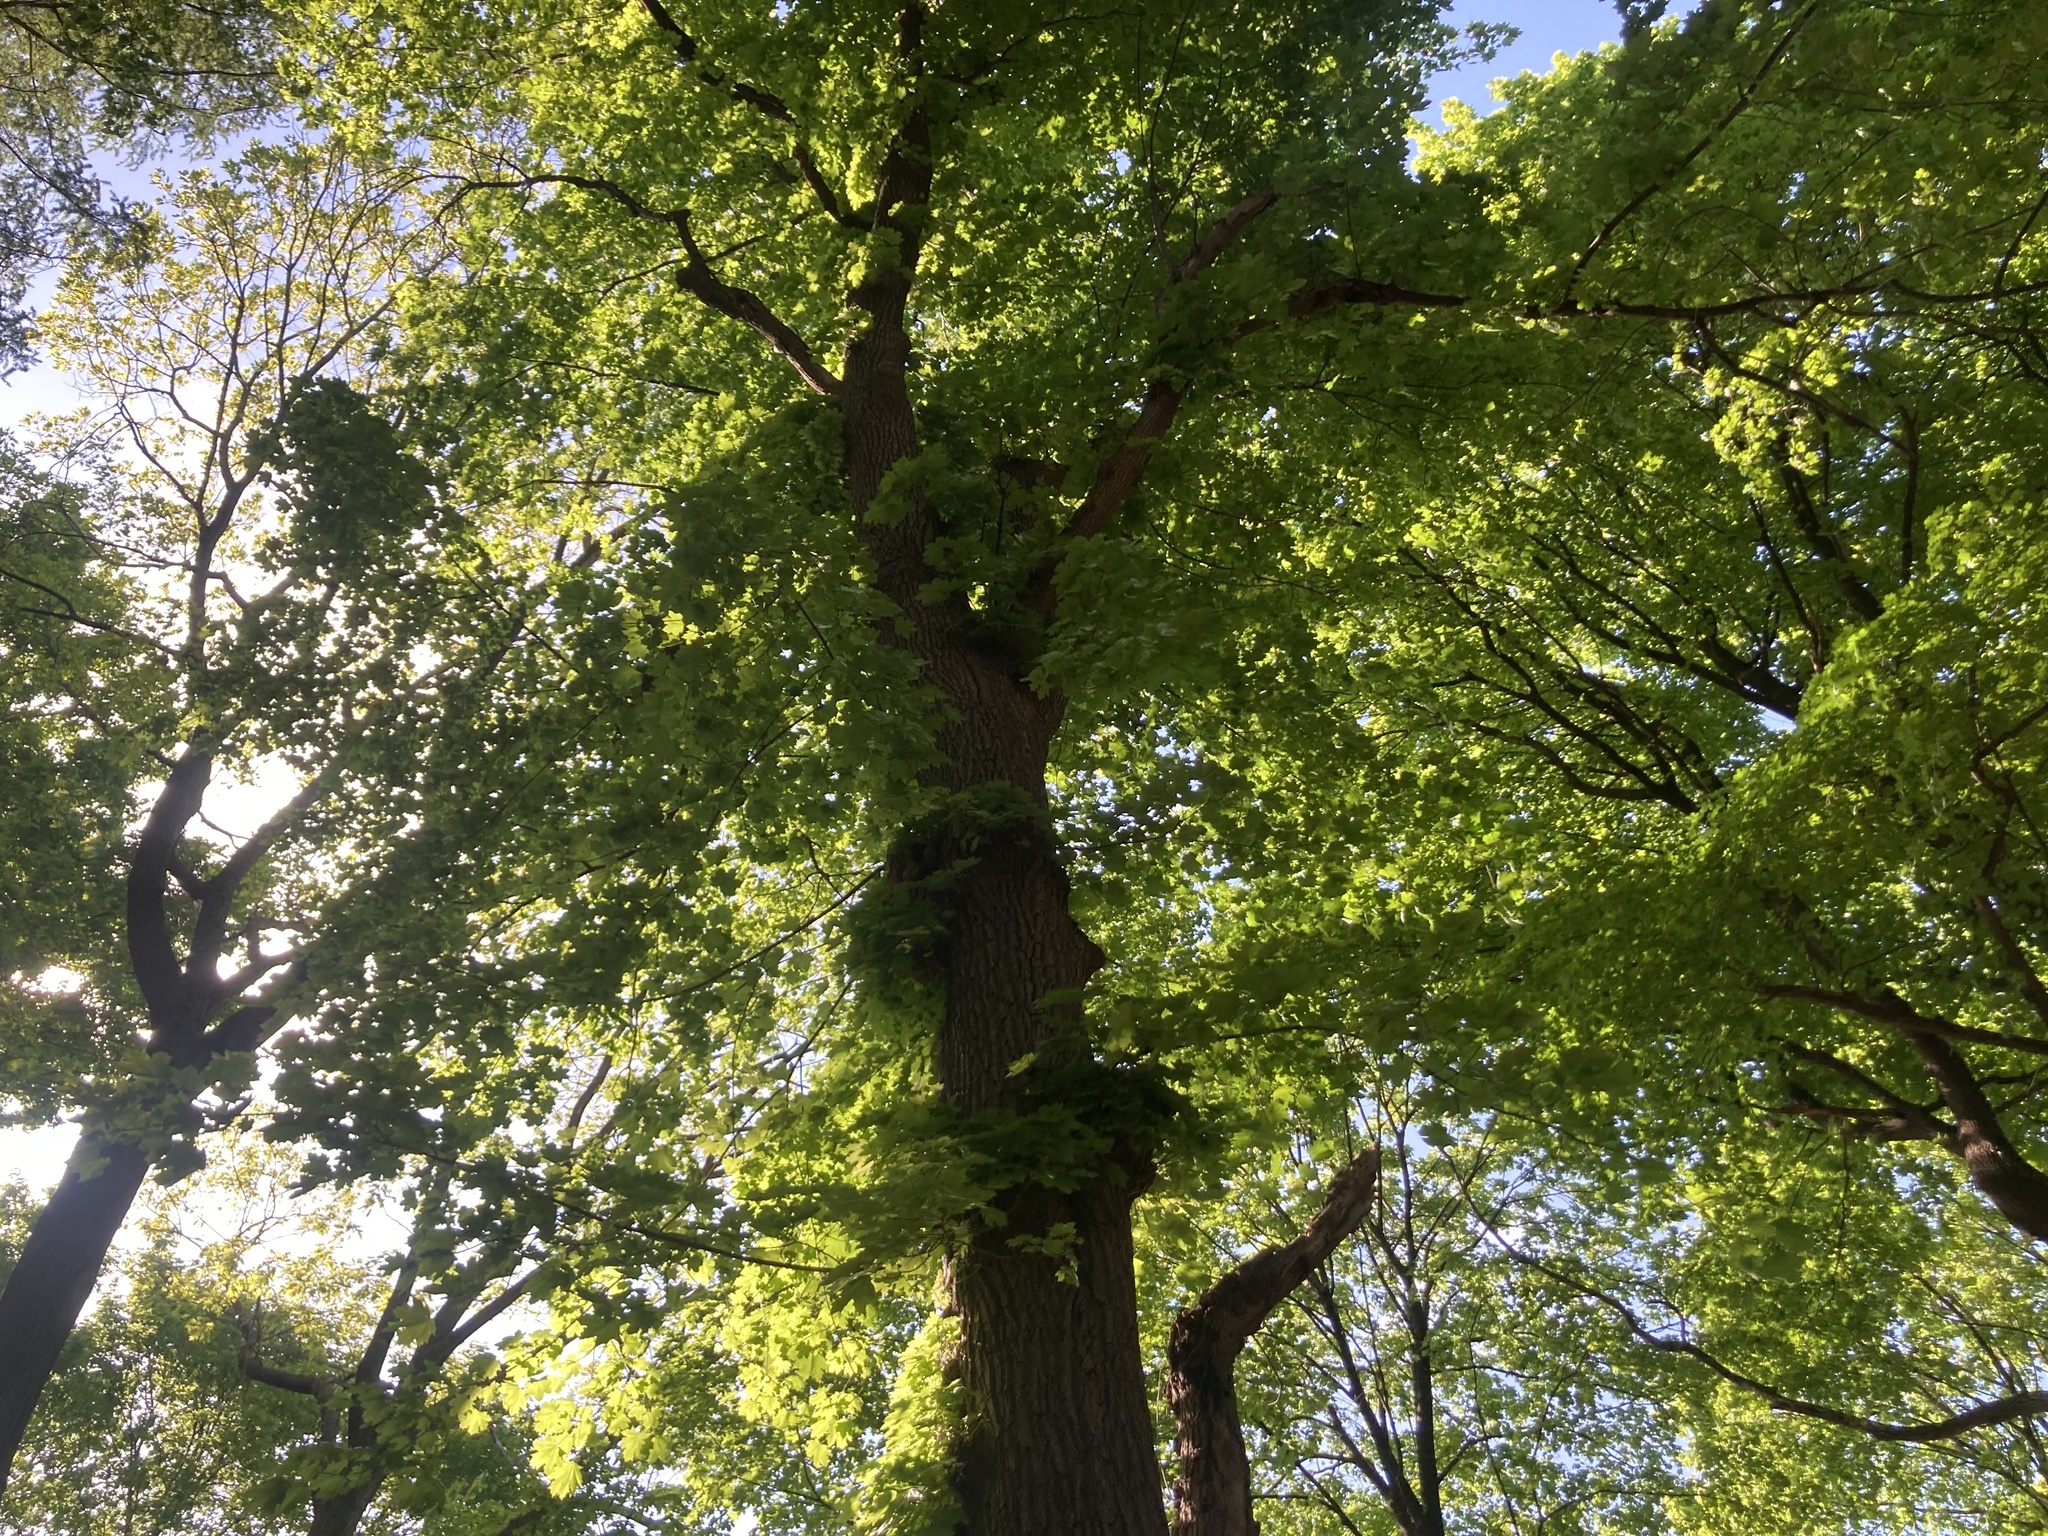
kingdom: Plantae
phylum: Tracheophyta
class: Magnoliopsida
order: Sapindales
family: Sapindaceae
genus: Acer
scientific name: Acer platanoides
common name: Norway maple
